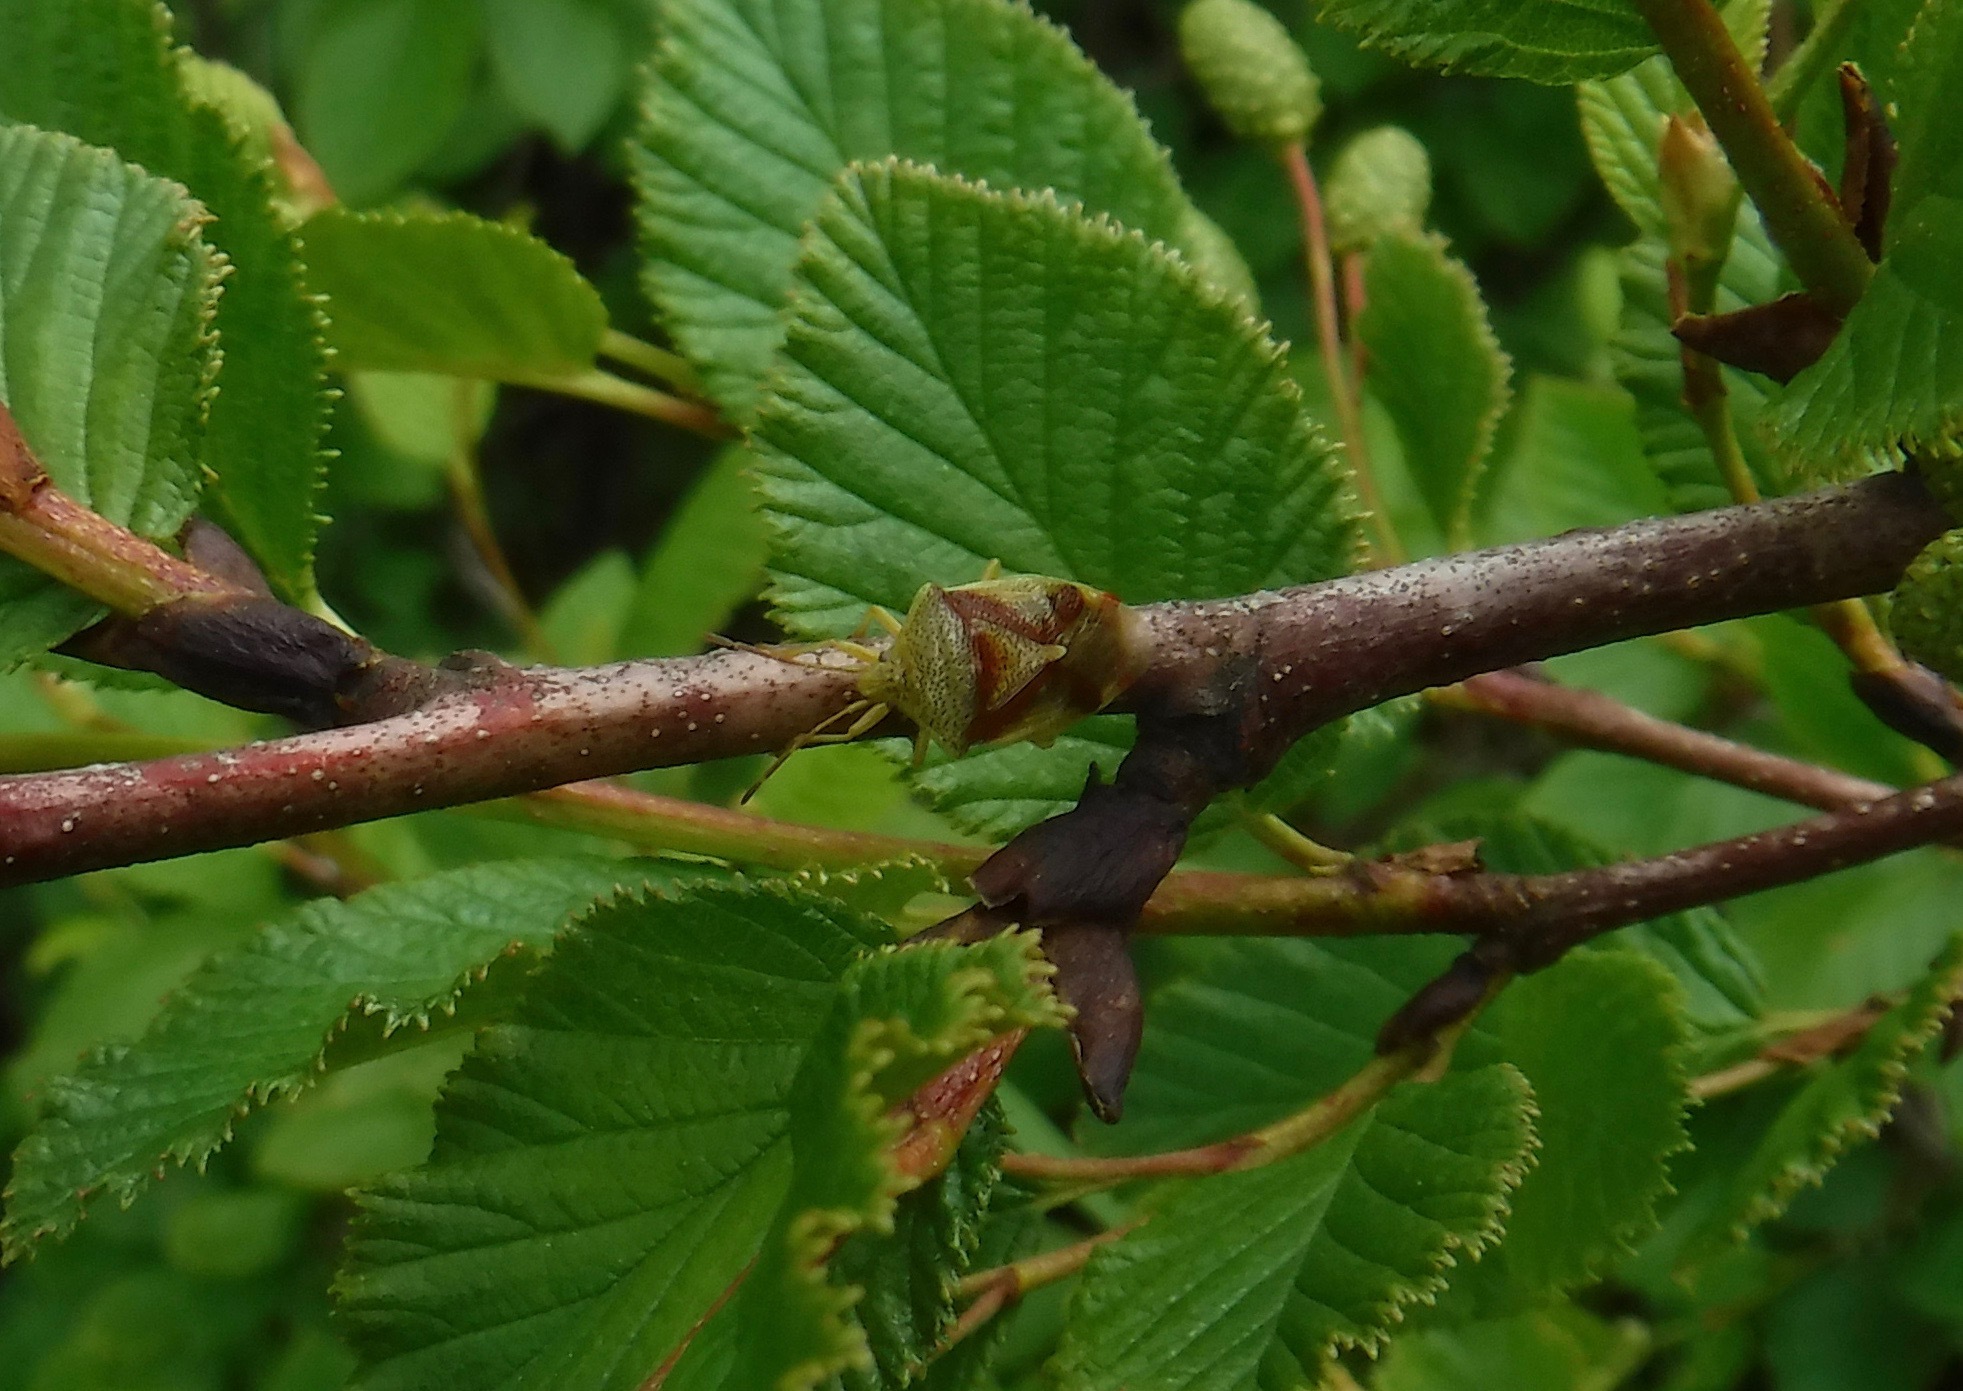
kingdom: Animalia
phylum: Arthropoda
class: Insecta
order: Hemiptera
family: Acanthosomatidae
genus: Elasmostethus
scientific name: Elasmostethus cruciatus
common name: Red-cross shield bug
